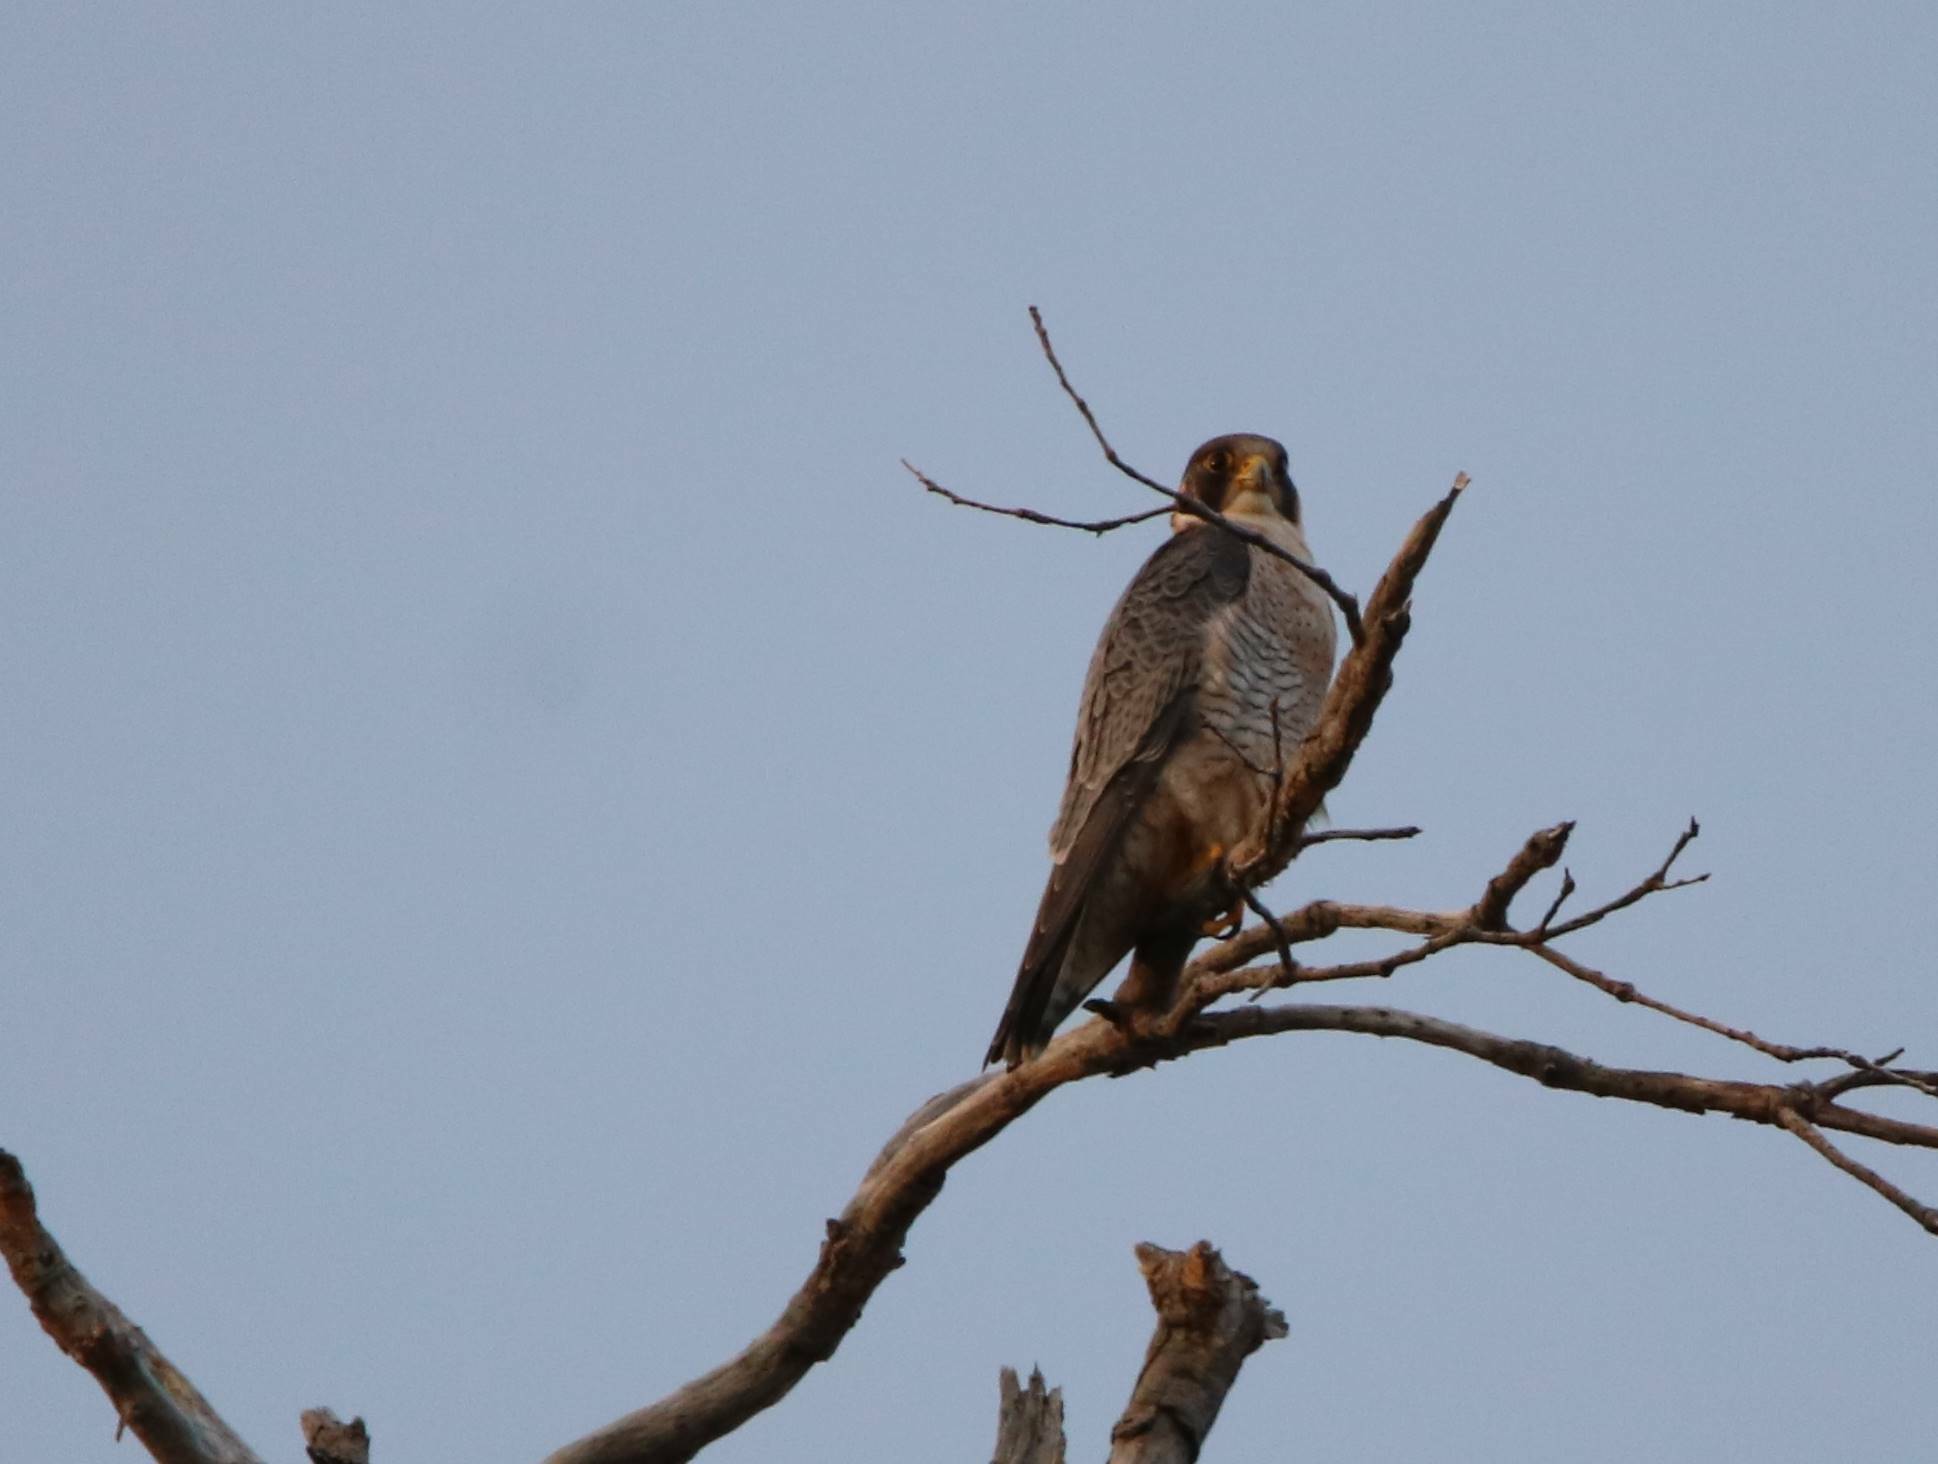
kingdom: Animalia
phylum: Chordata
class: Aves
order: Falconiformes
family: Falconidae
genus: Falco
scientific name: Falco peregrinus
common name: Peregrine falcon
